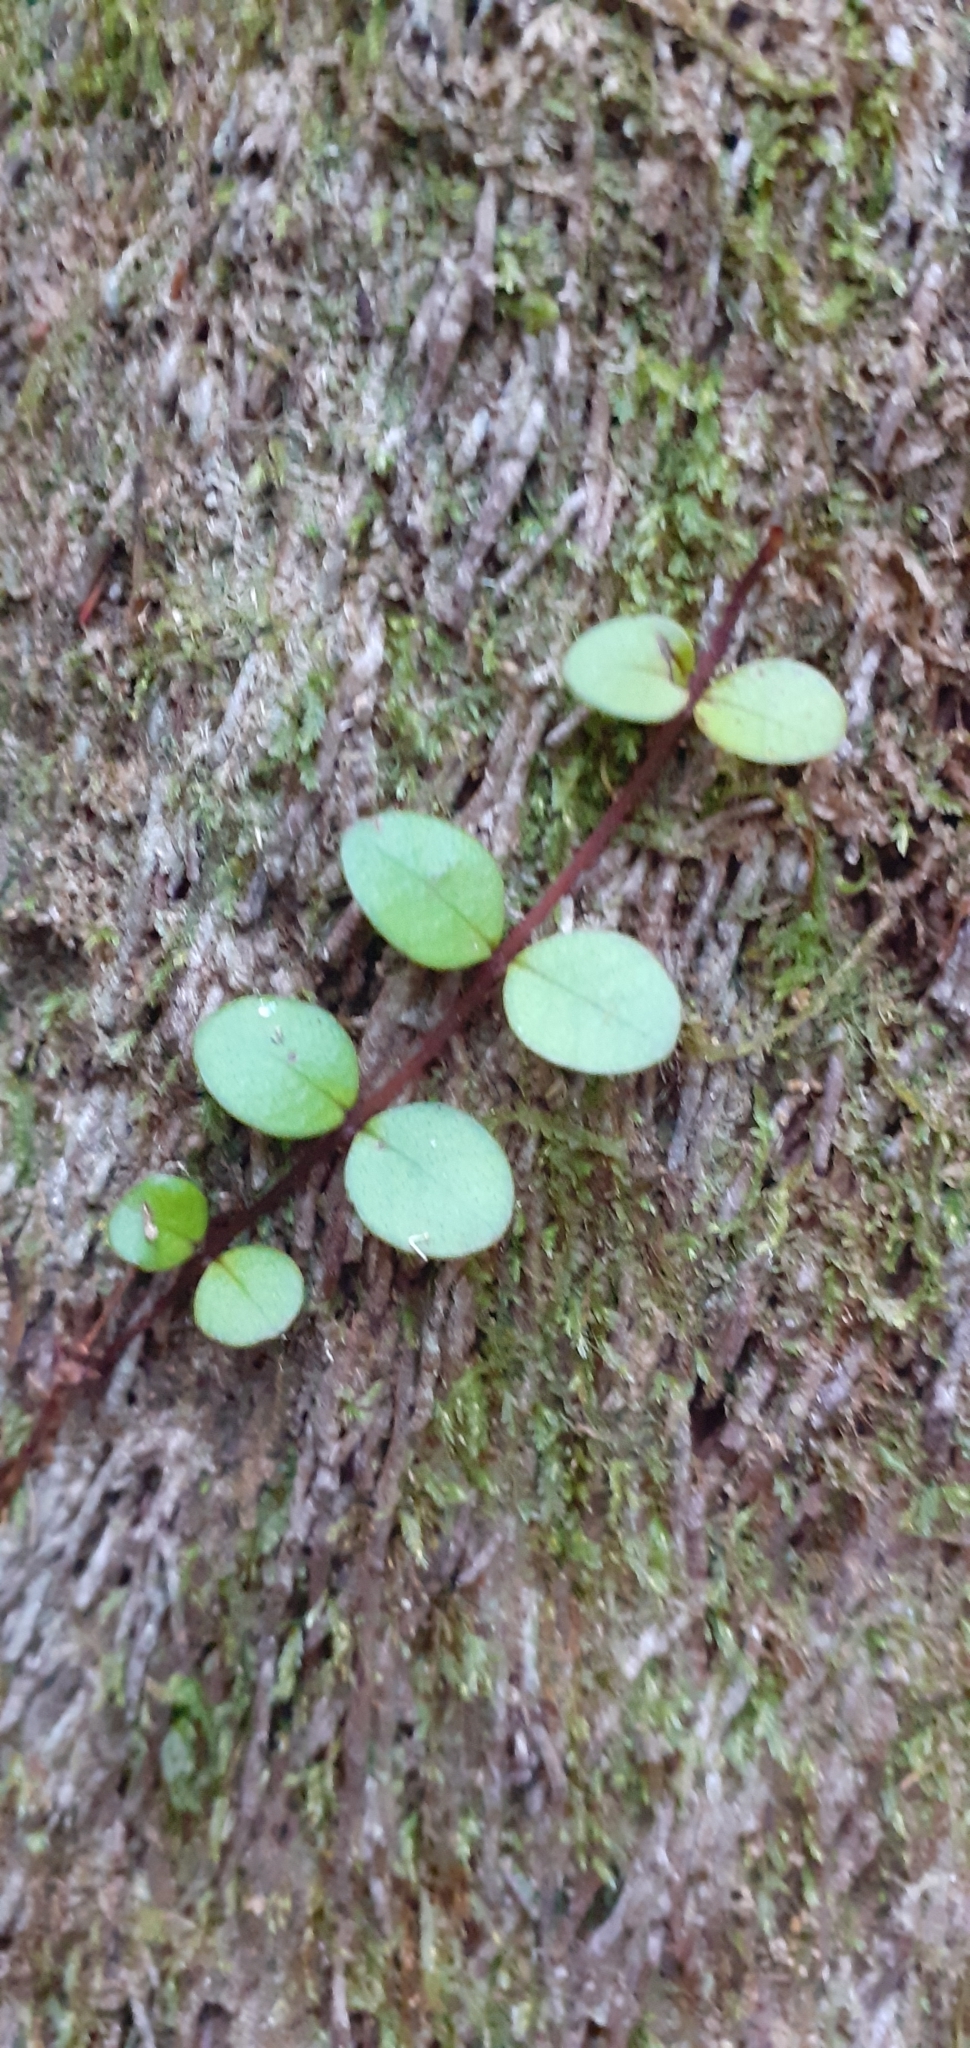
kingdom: Plantae
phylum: Tracheophyta
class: Magnoliopsida
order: Myrtales
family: Myrtaceae
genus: Metrosideros
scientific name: Metrosideros fulgens
